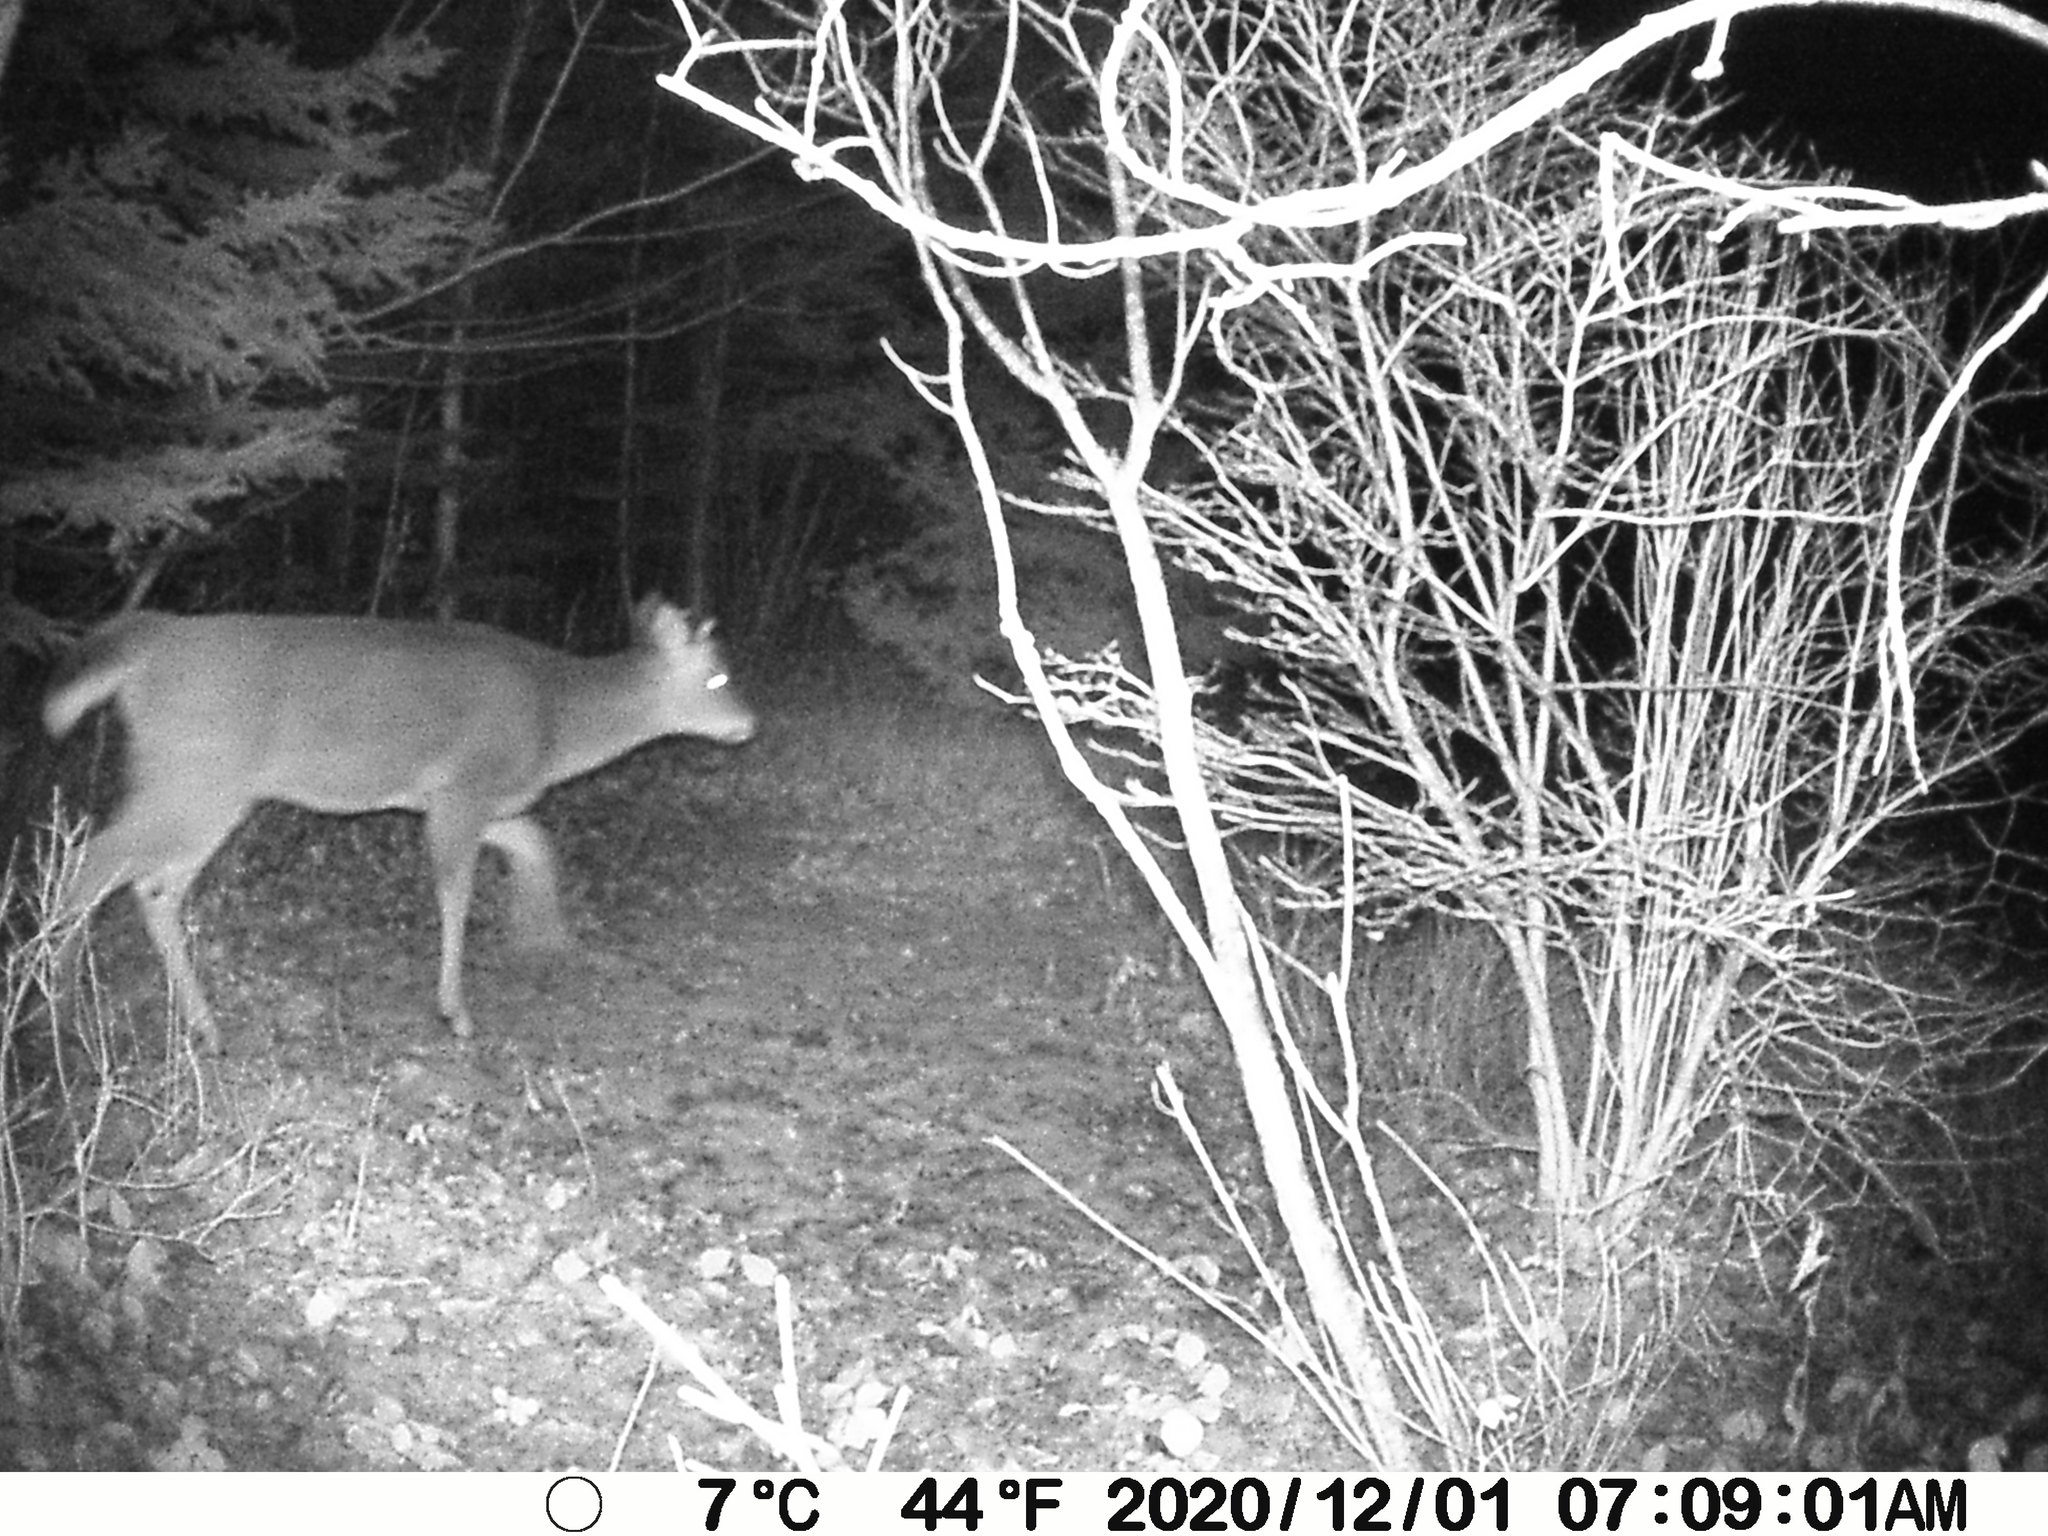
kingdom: Animalia
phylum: Chordata
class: Mammalia
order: Artiodactyla
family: Cervidae
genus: Odocoileus
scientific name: Odocoileus virginianus
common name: White-tailed deer
